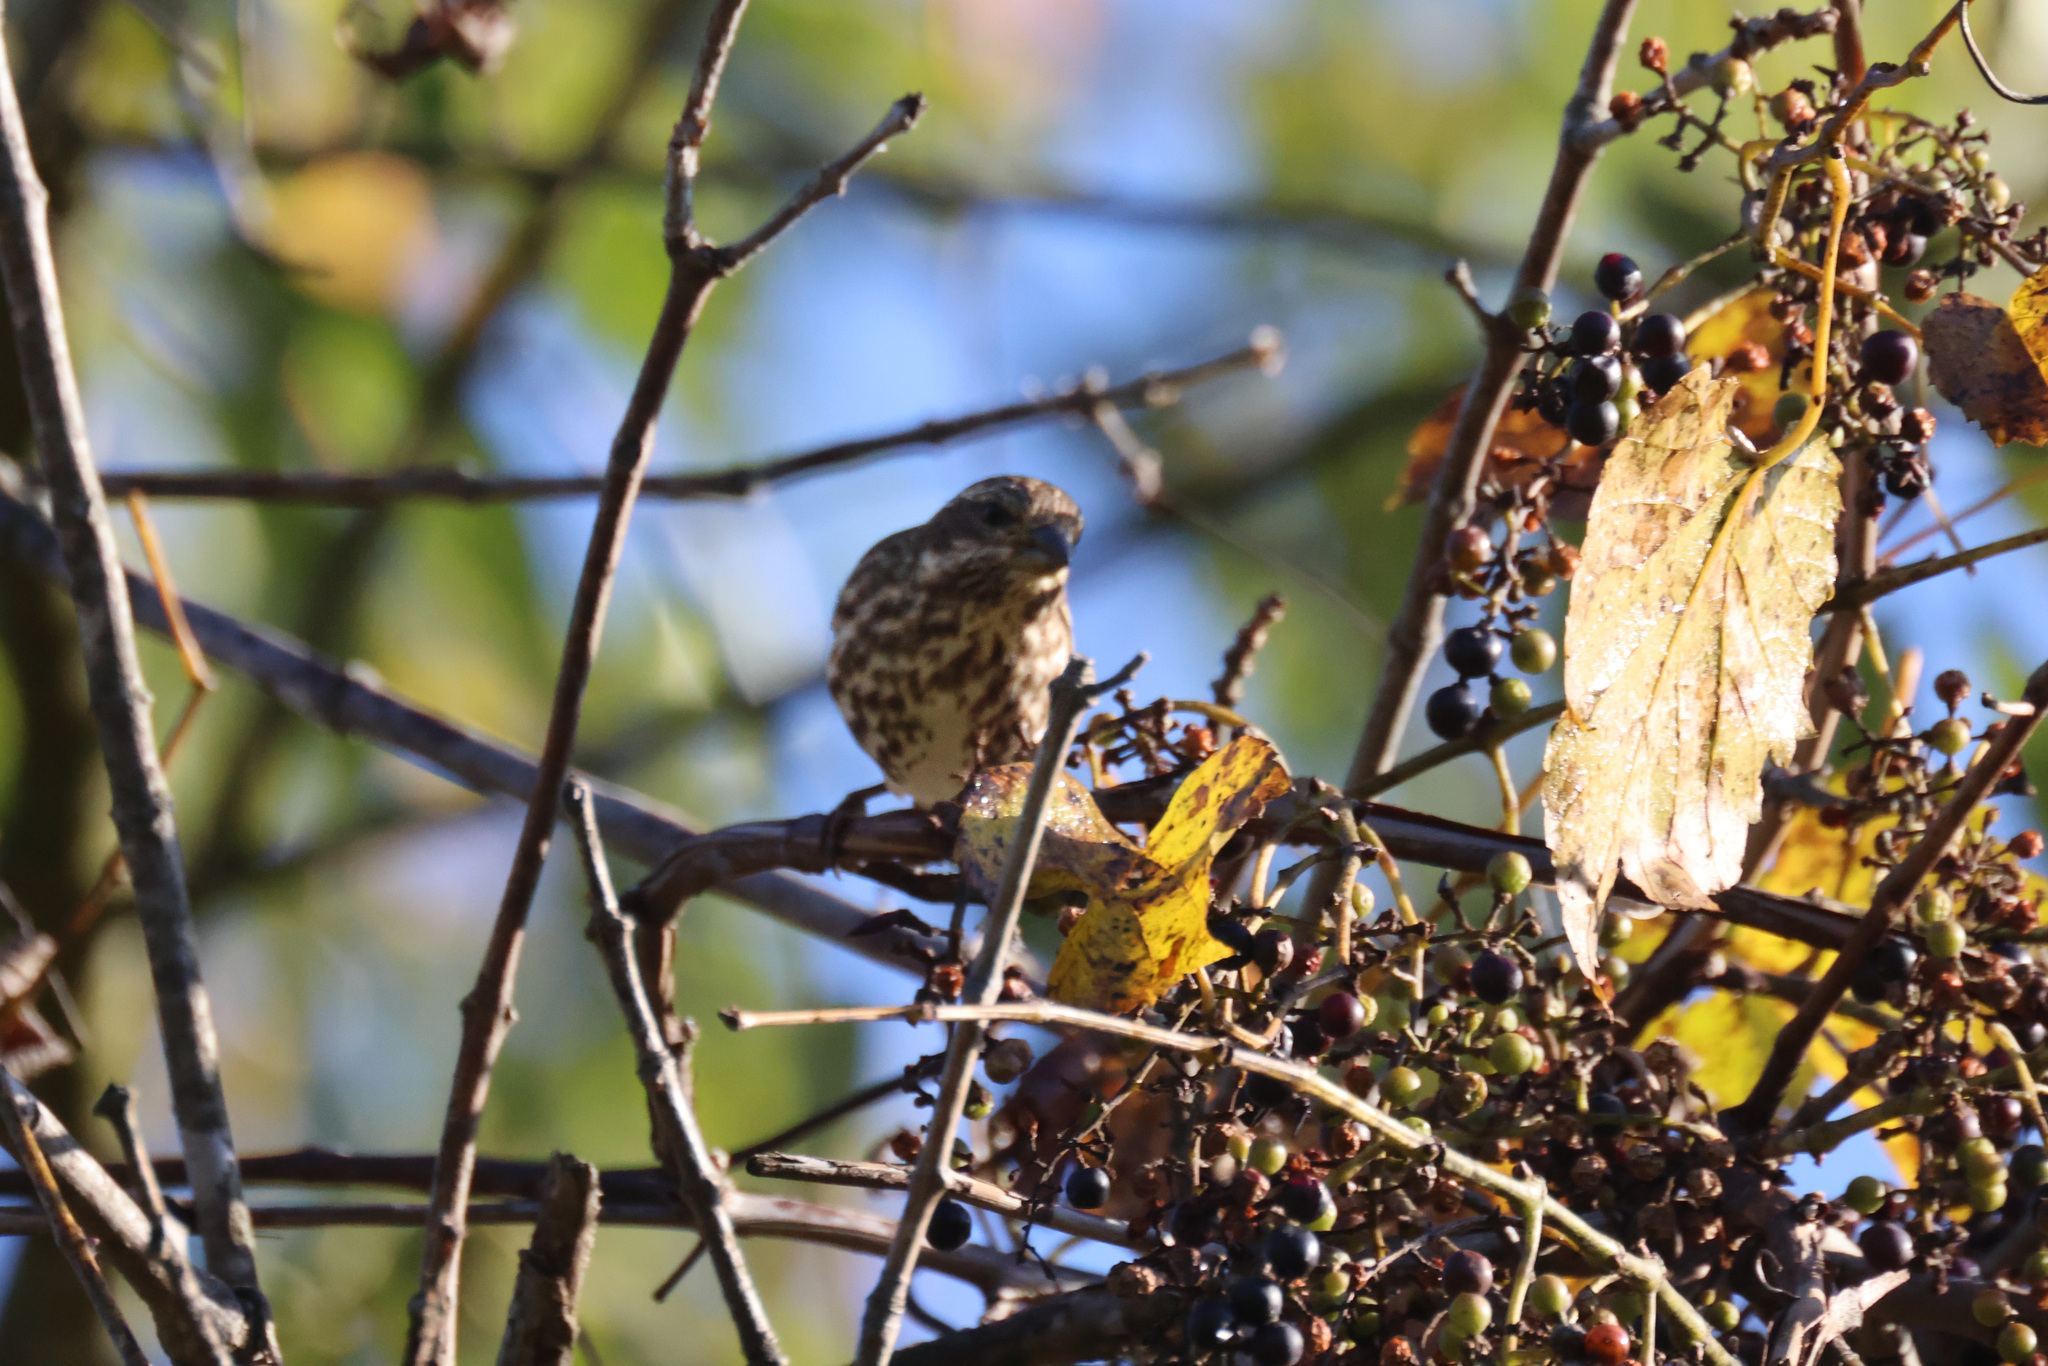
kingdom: Animalia
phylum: Chordata
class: Aves
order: Passeriformes
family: Fringillidae
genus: Haemorhous
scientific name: Haemorhous purpureus
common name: Purple finch
